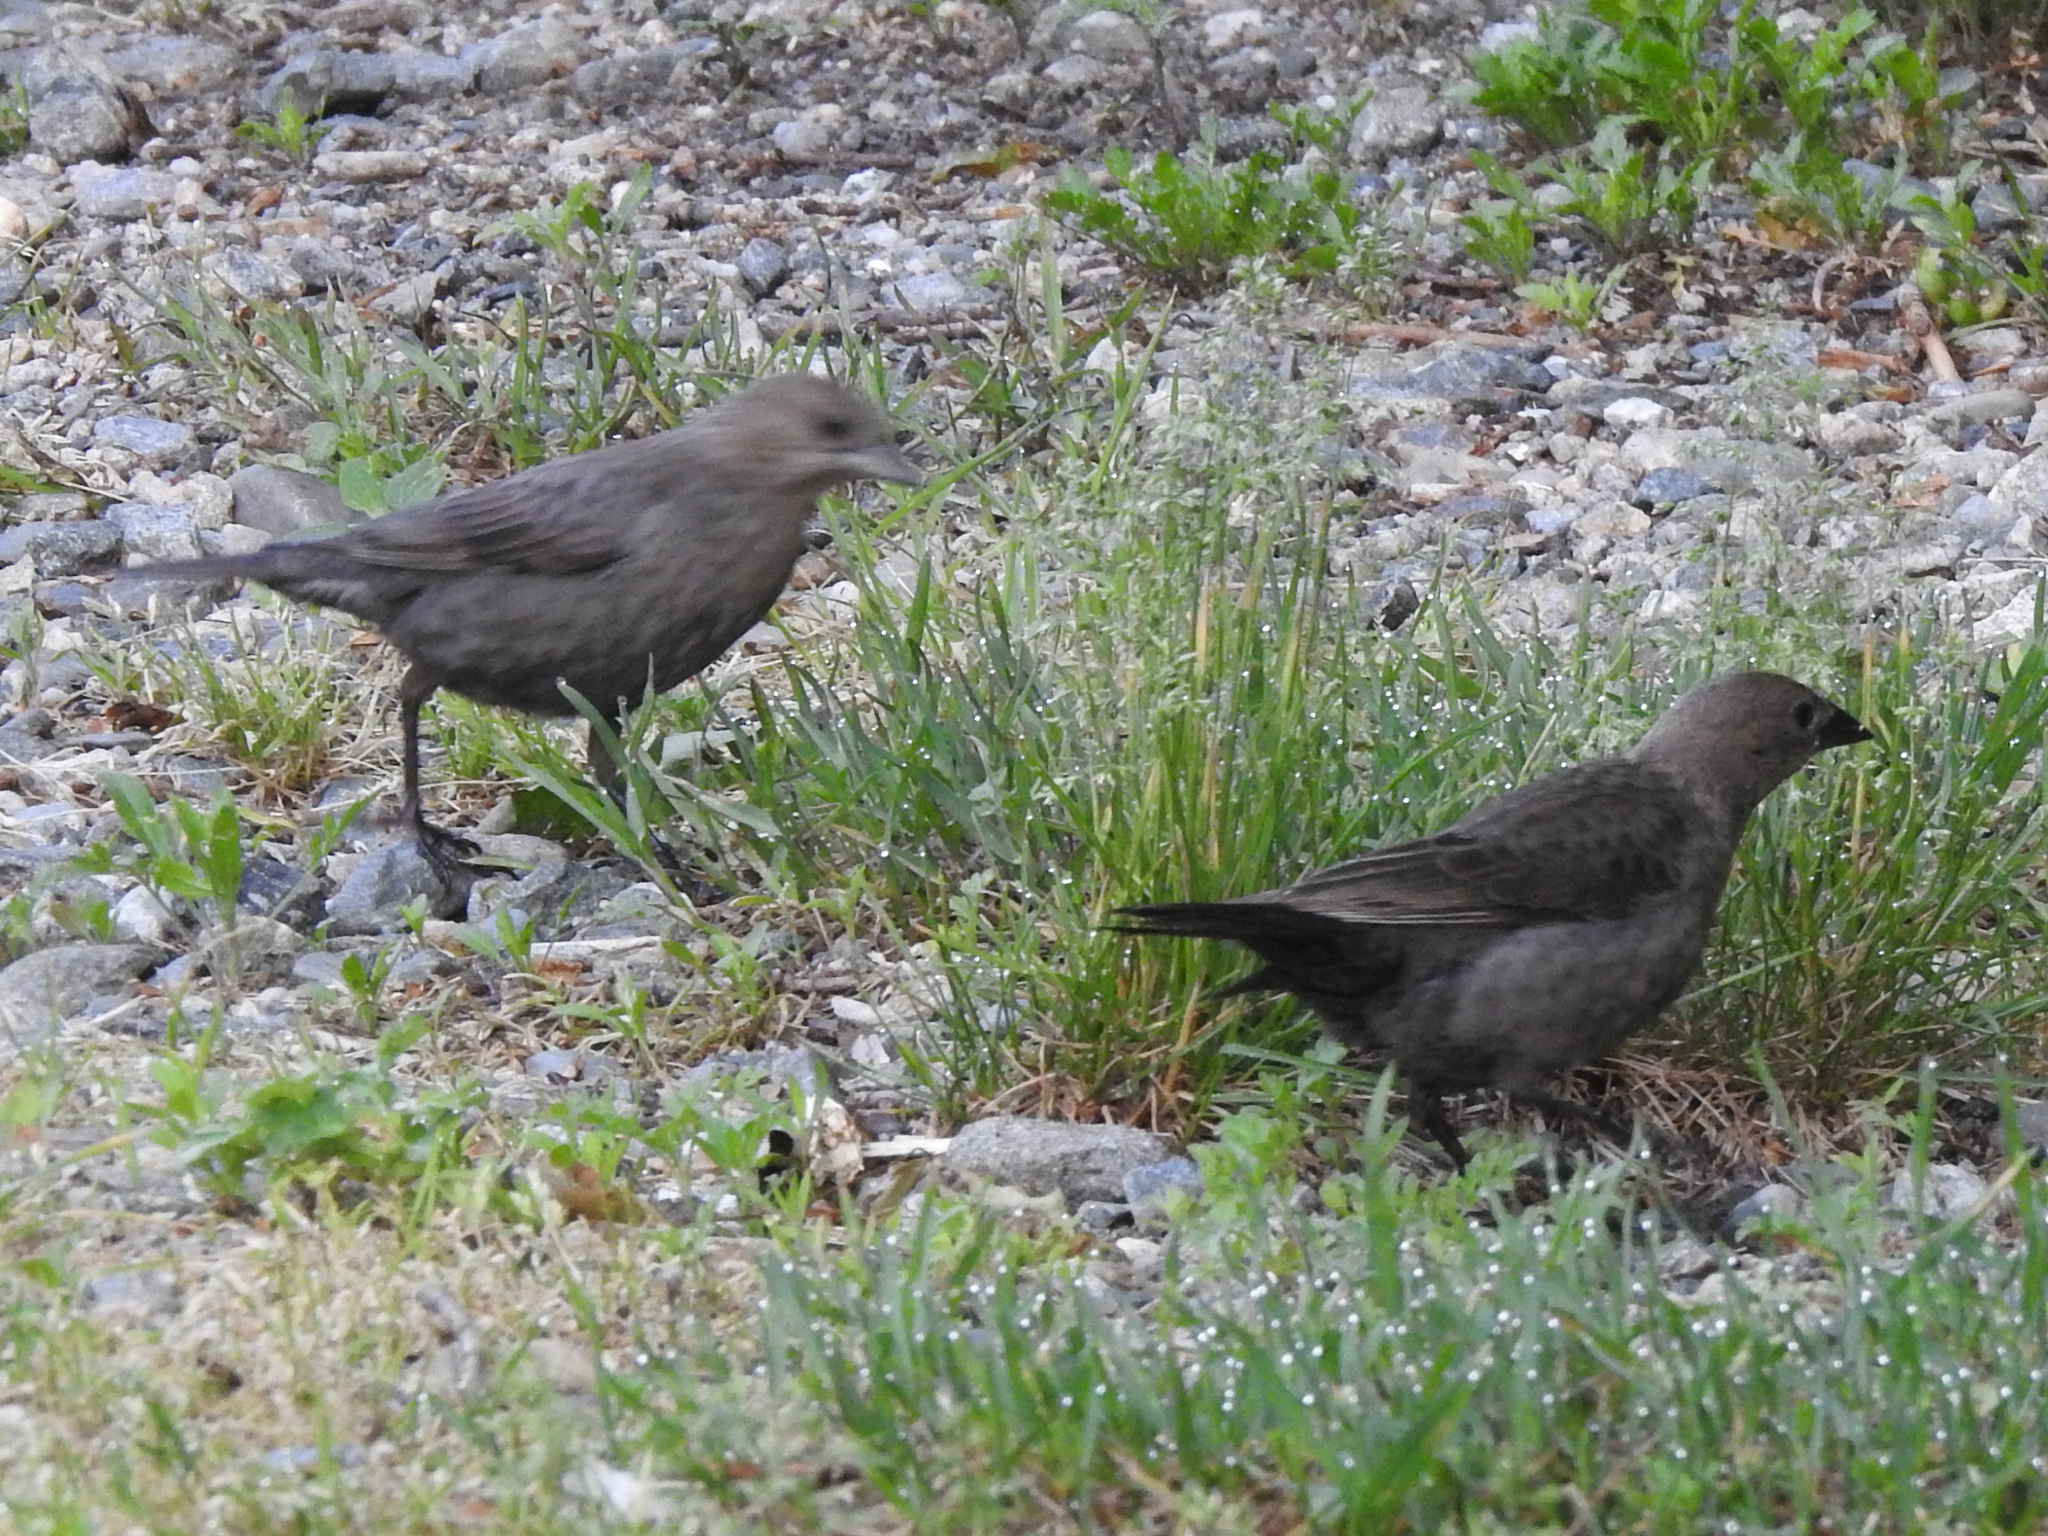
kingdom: Animalia
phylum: Chordata
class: Aves
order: Passeriformes
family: Icteridae
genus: Molothrus
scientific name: Molothrus ater
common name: Brown-headed cowbird
